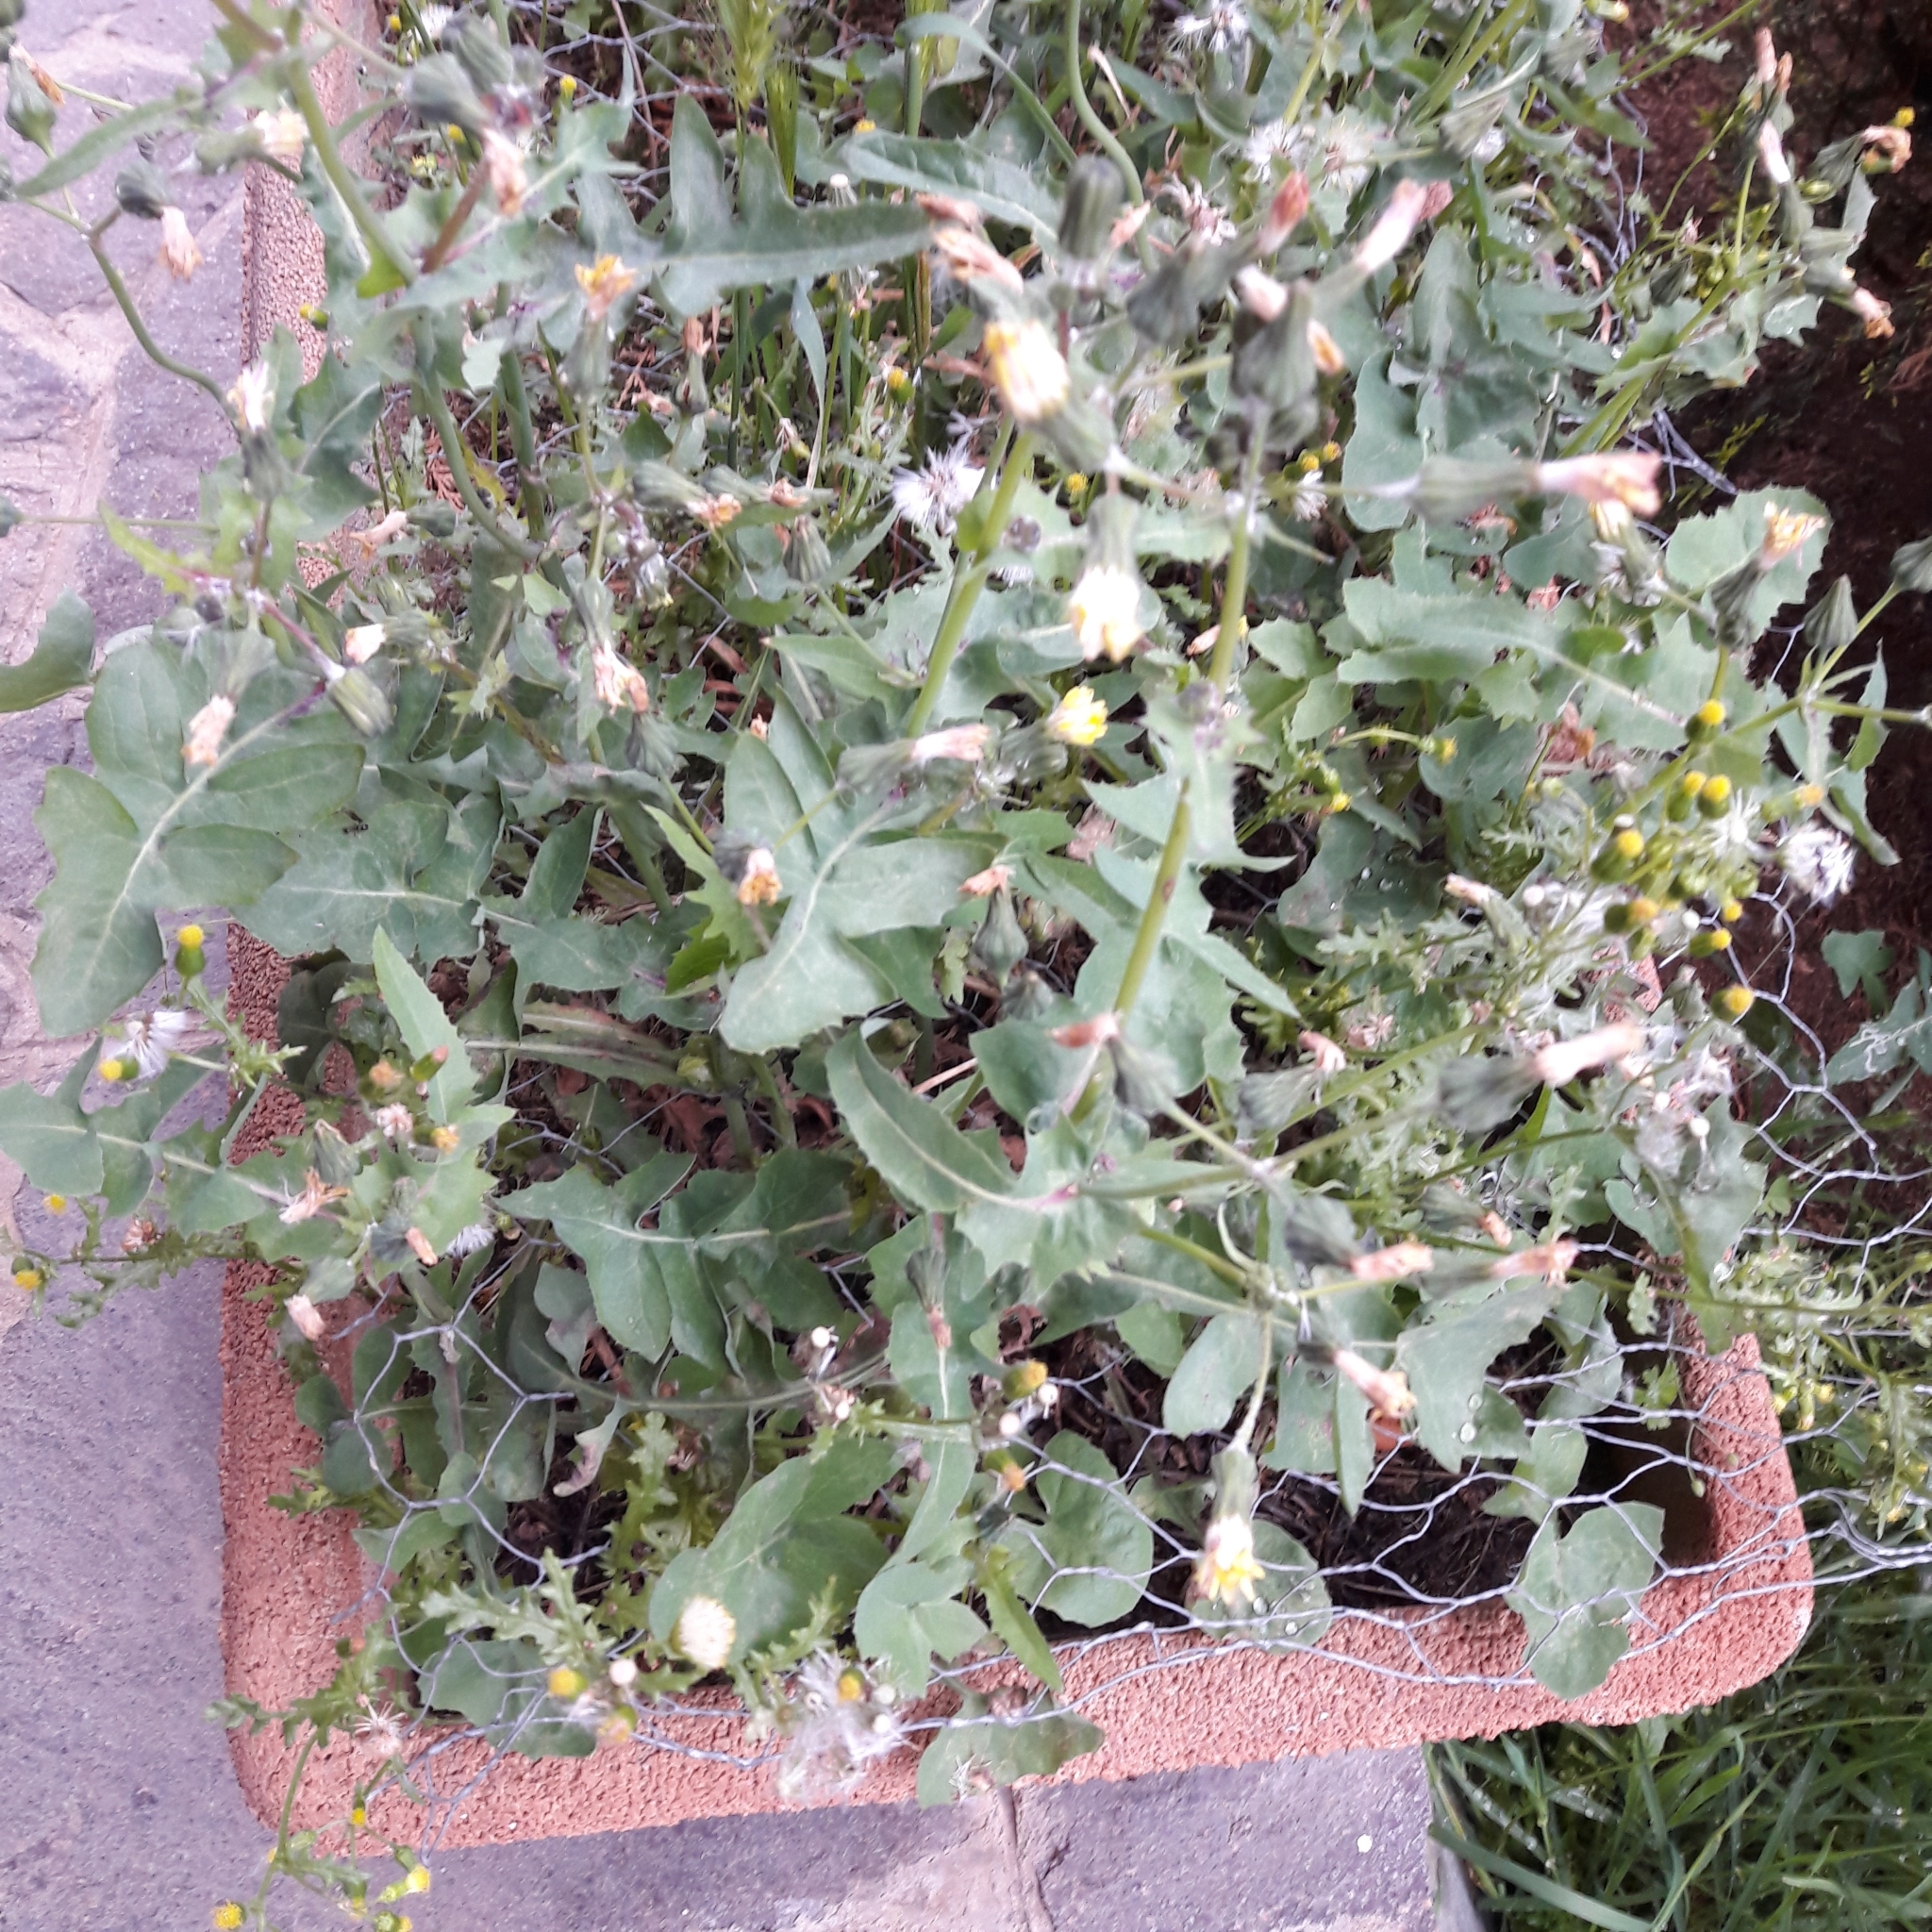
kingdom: Plantae
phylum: Tracheophyta
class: Magnoliopsida
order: Asterales
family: Asteraceae
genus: Sonchus
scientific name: Sonchus oleraceus
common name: Common sowthistle
